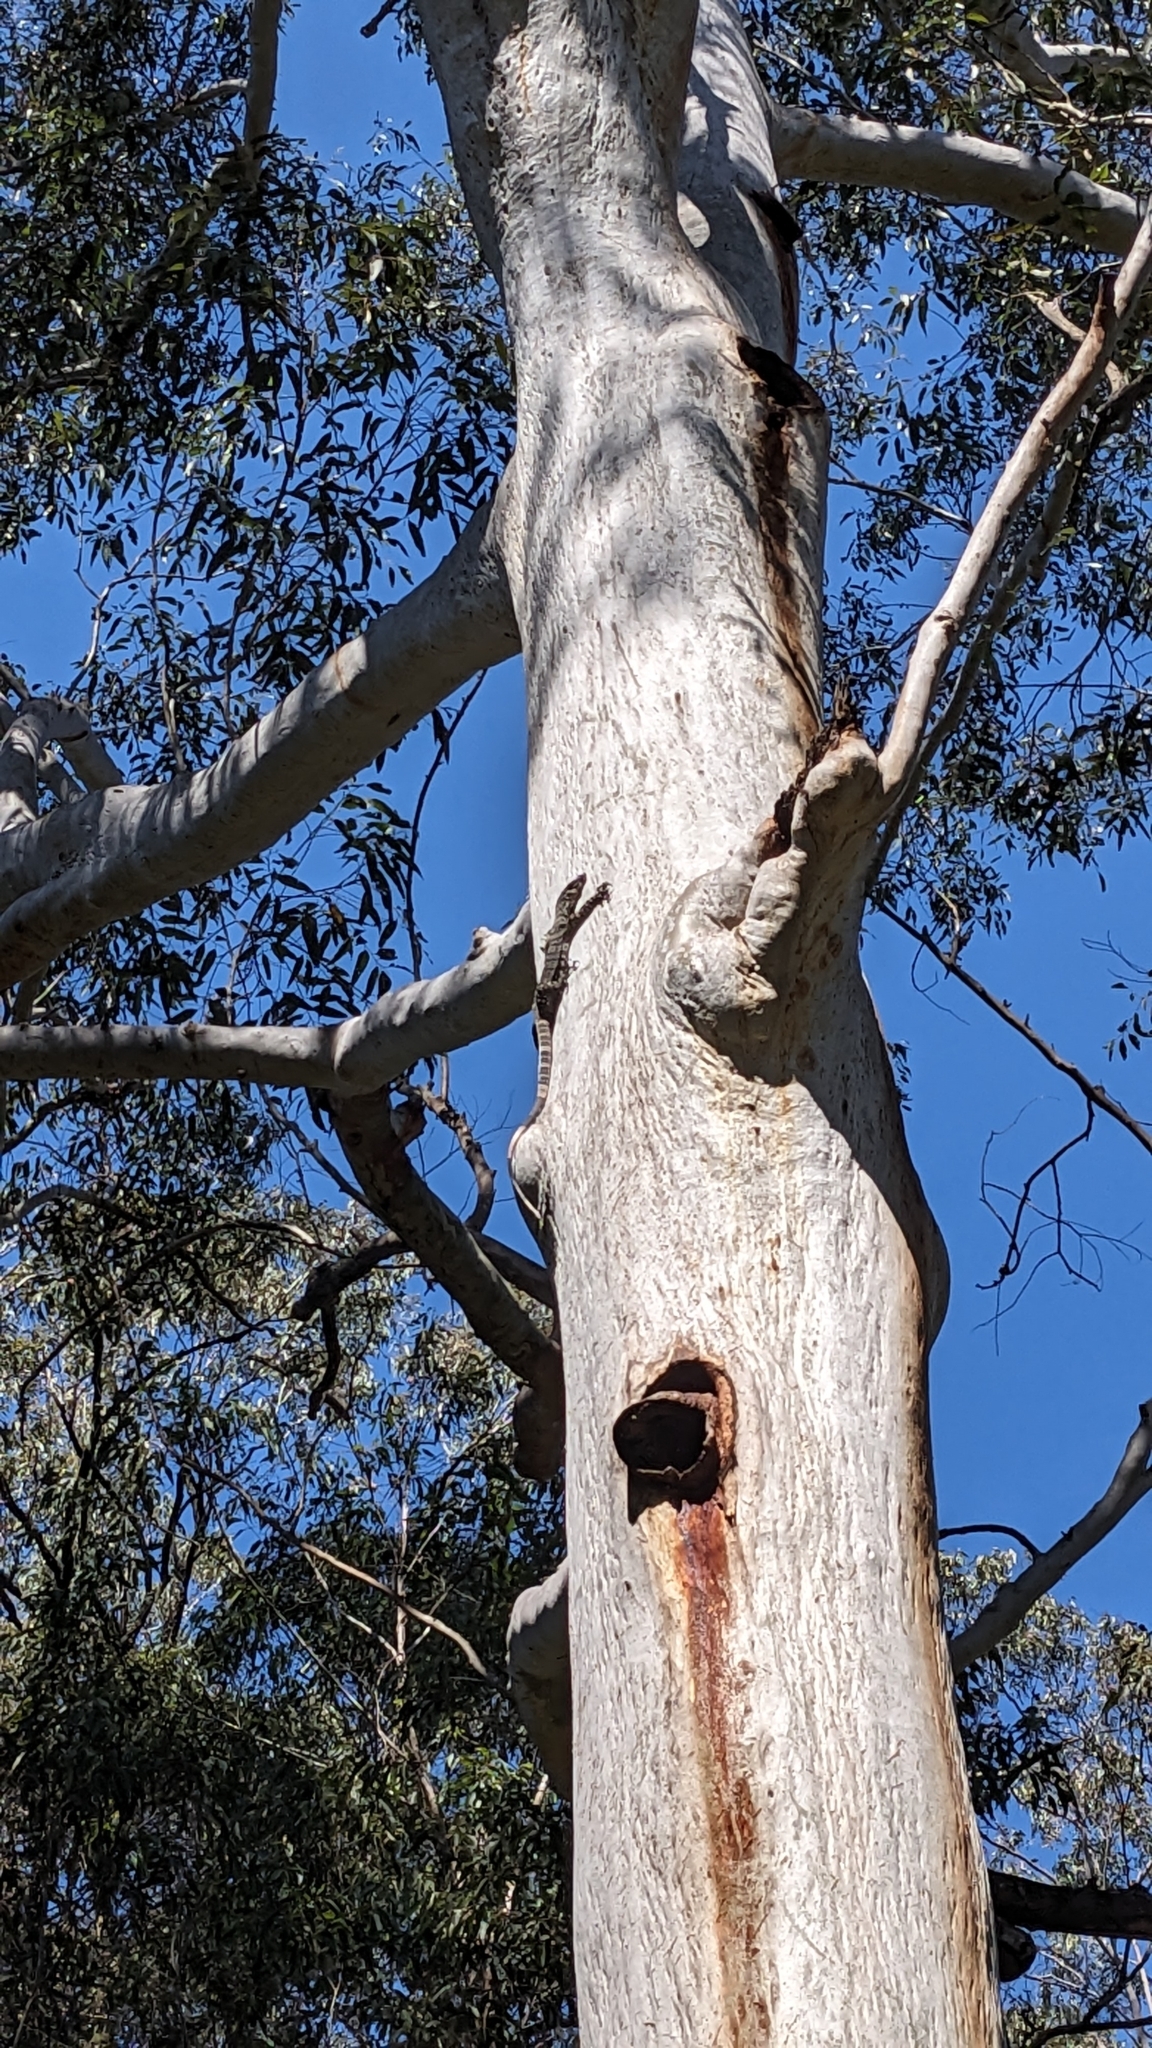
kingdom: Animalia
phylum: Chordata
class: Squamata
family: Varanidae
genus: Varanus
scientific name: Varanus varius
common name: Lace monitor
